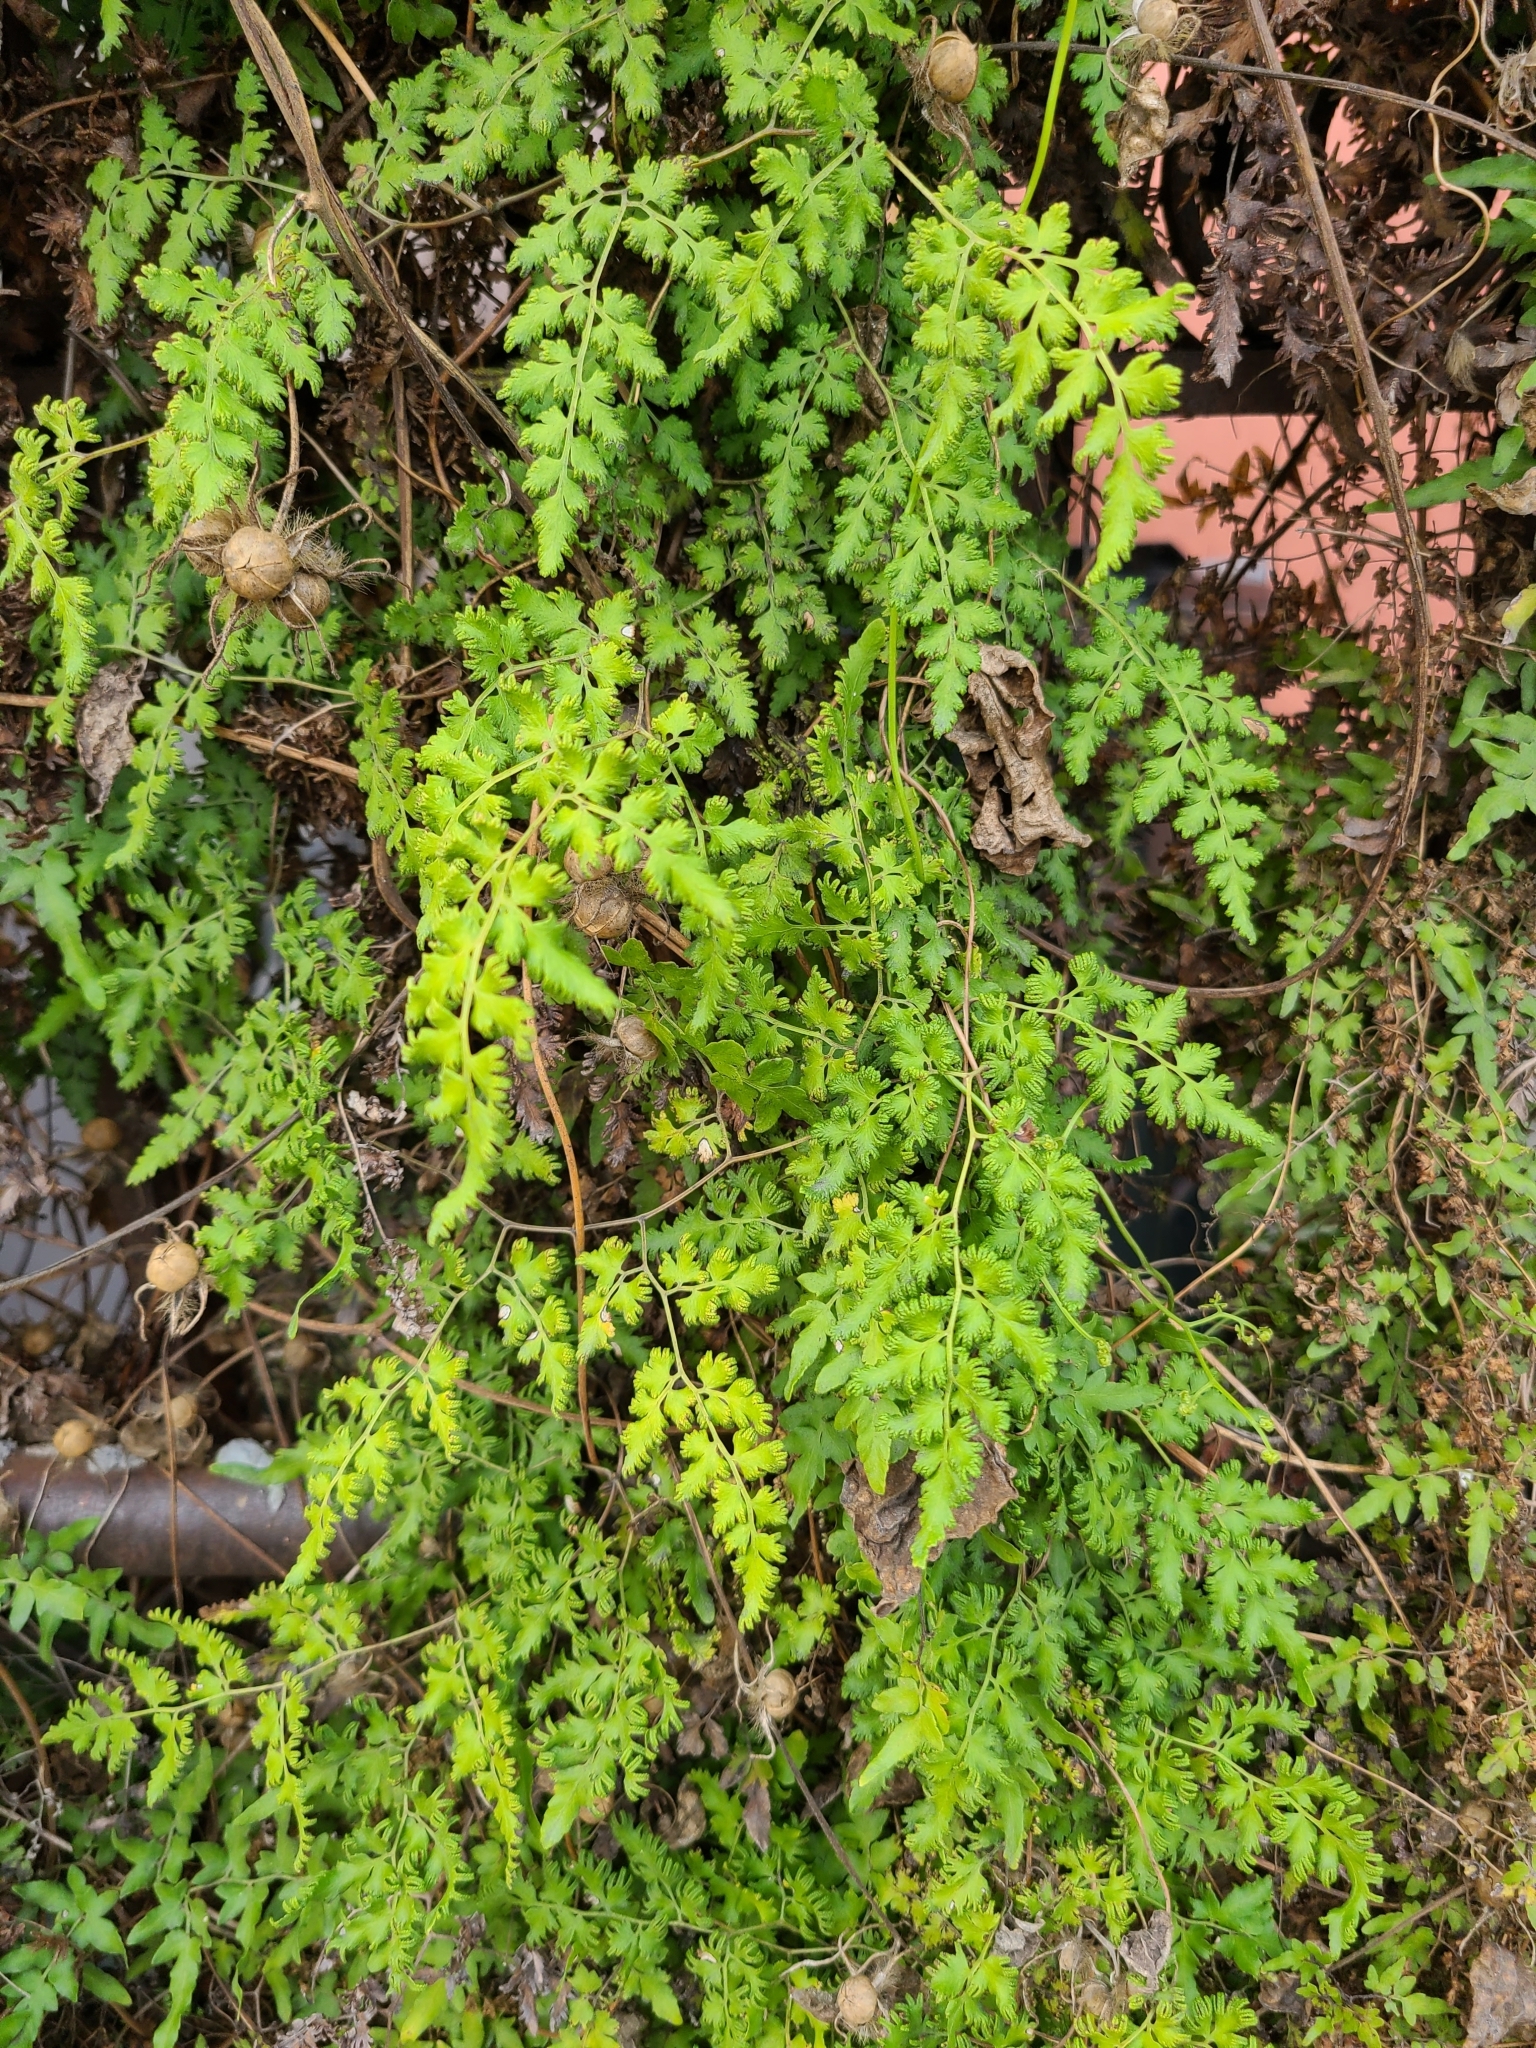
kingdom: Plantae
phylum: Tracheophyta
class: Polypodiopsida
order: Schizaeales
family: Lygodiaceae
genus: Lygodium
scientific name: Lygodium japonicum
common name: Japanese climbing fern
